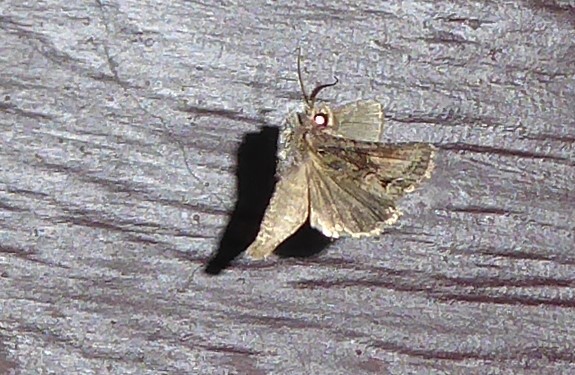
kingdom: Animalia
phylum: Arthropoda
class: Insecta
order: Lepidoptera
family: Noctuidae
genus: Ichneutica
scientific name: Ichneutica mutans
